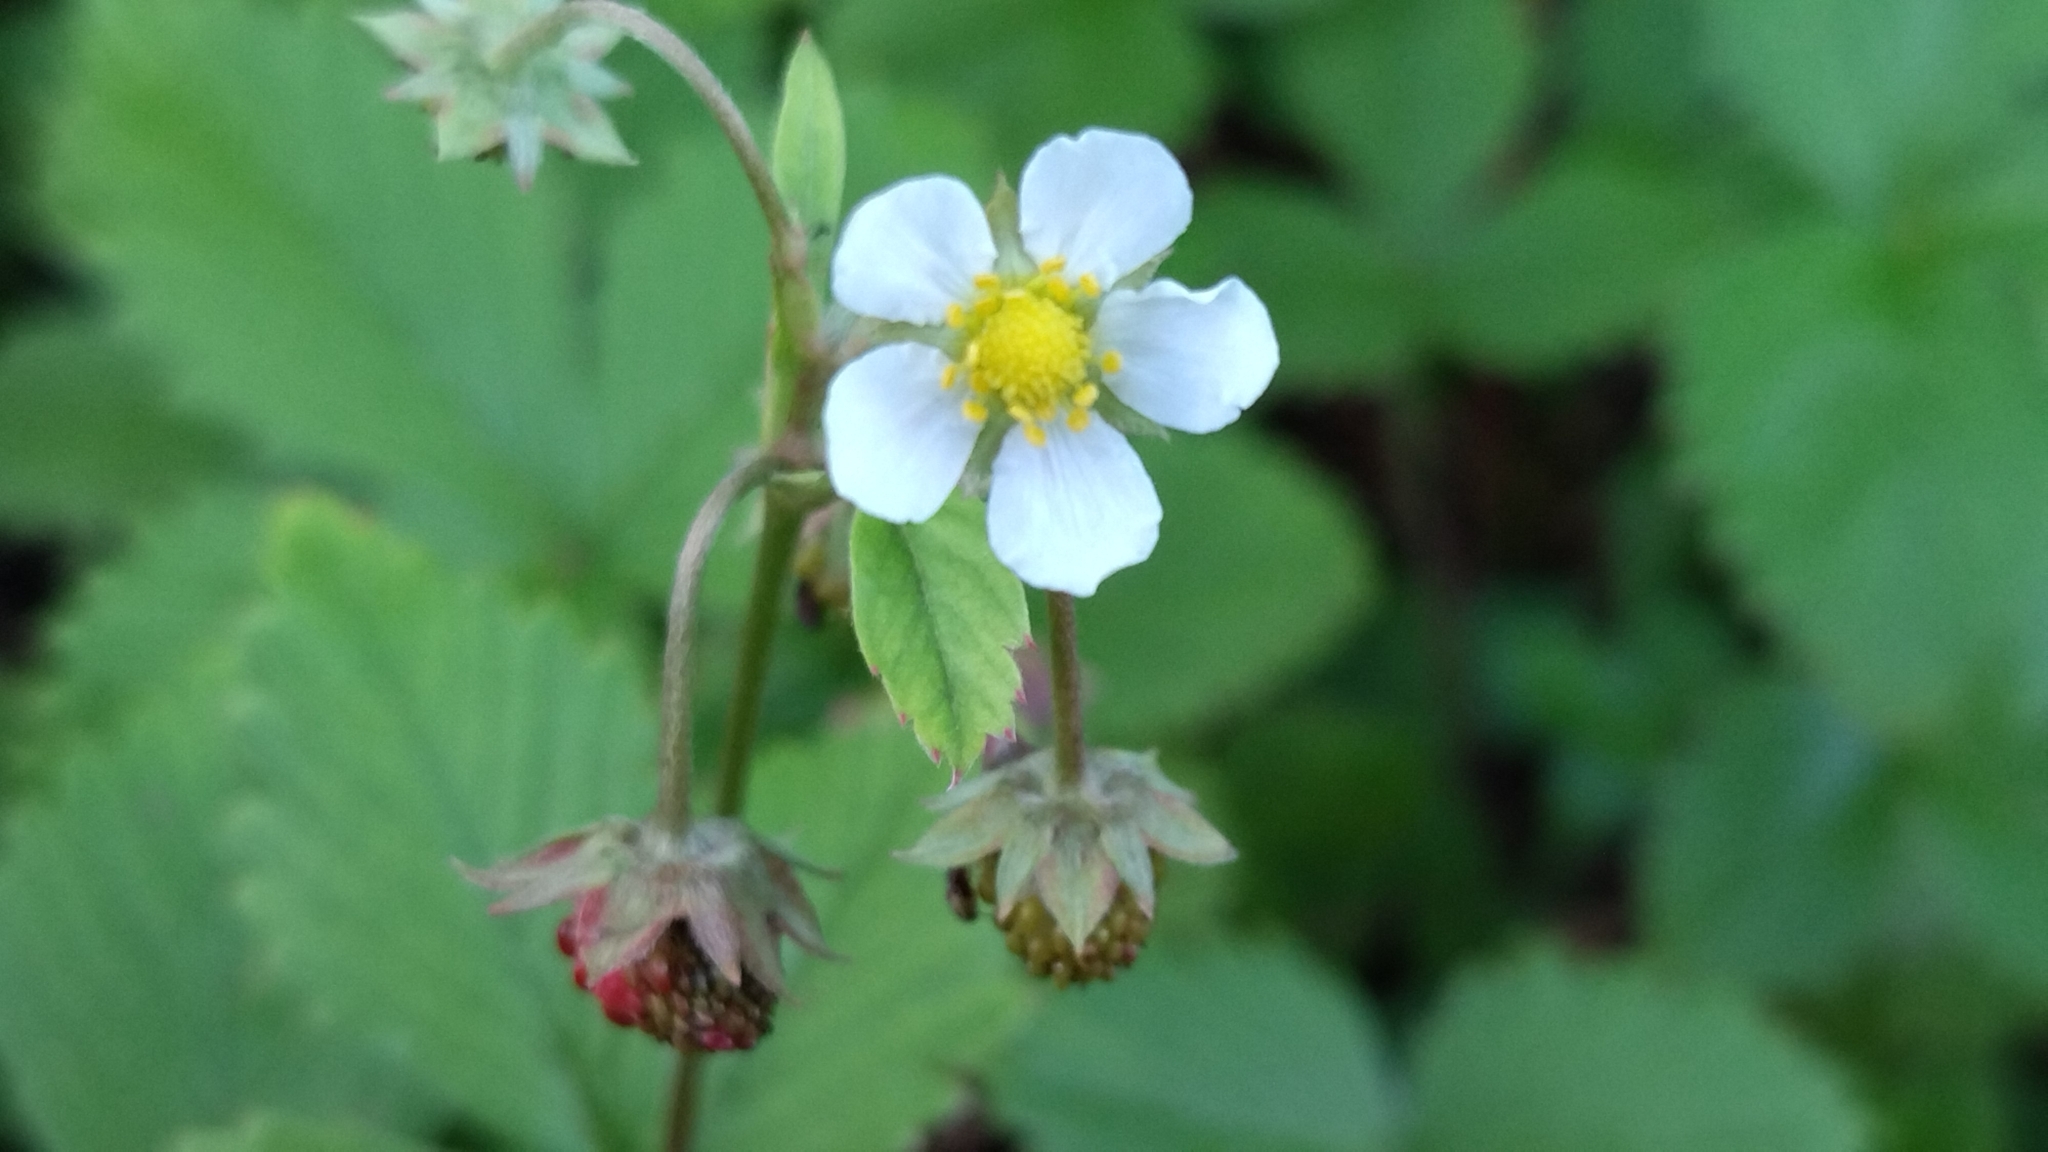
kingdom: Plantae
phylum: Tracheophyta
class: Magnoliopsida
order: Rosales
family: Rosaceae
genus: Fragaria
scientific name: Fragaria vesca
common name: Wild strawberry
